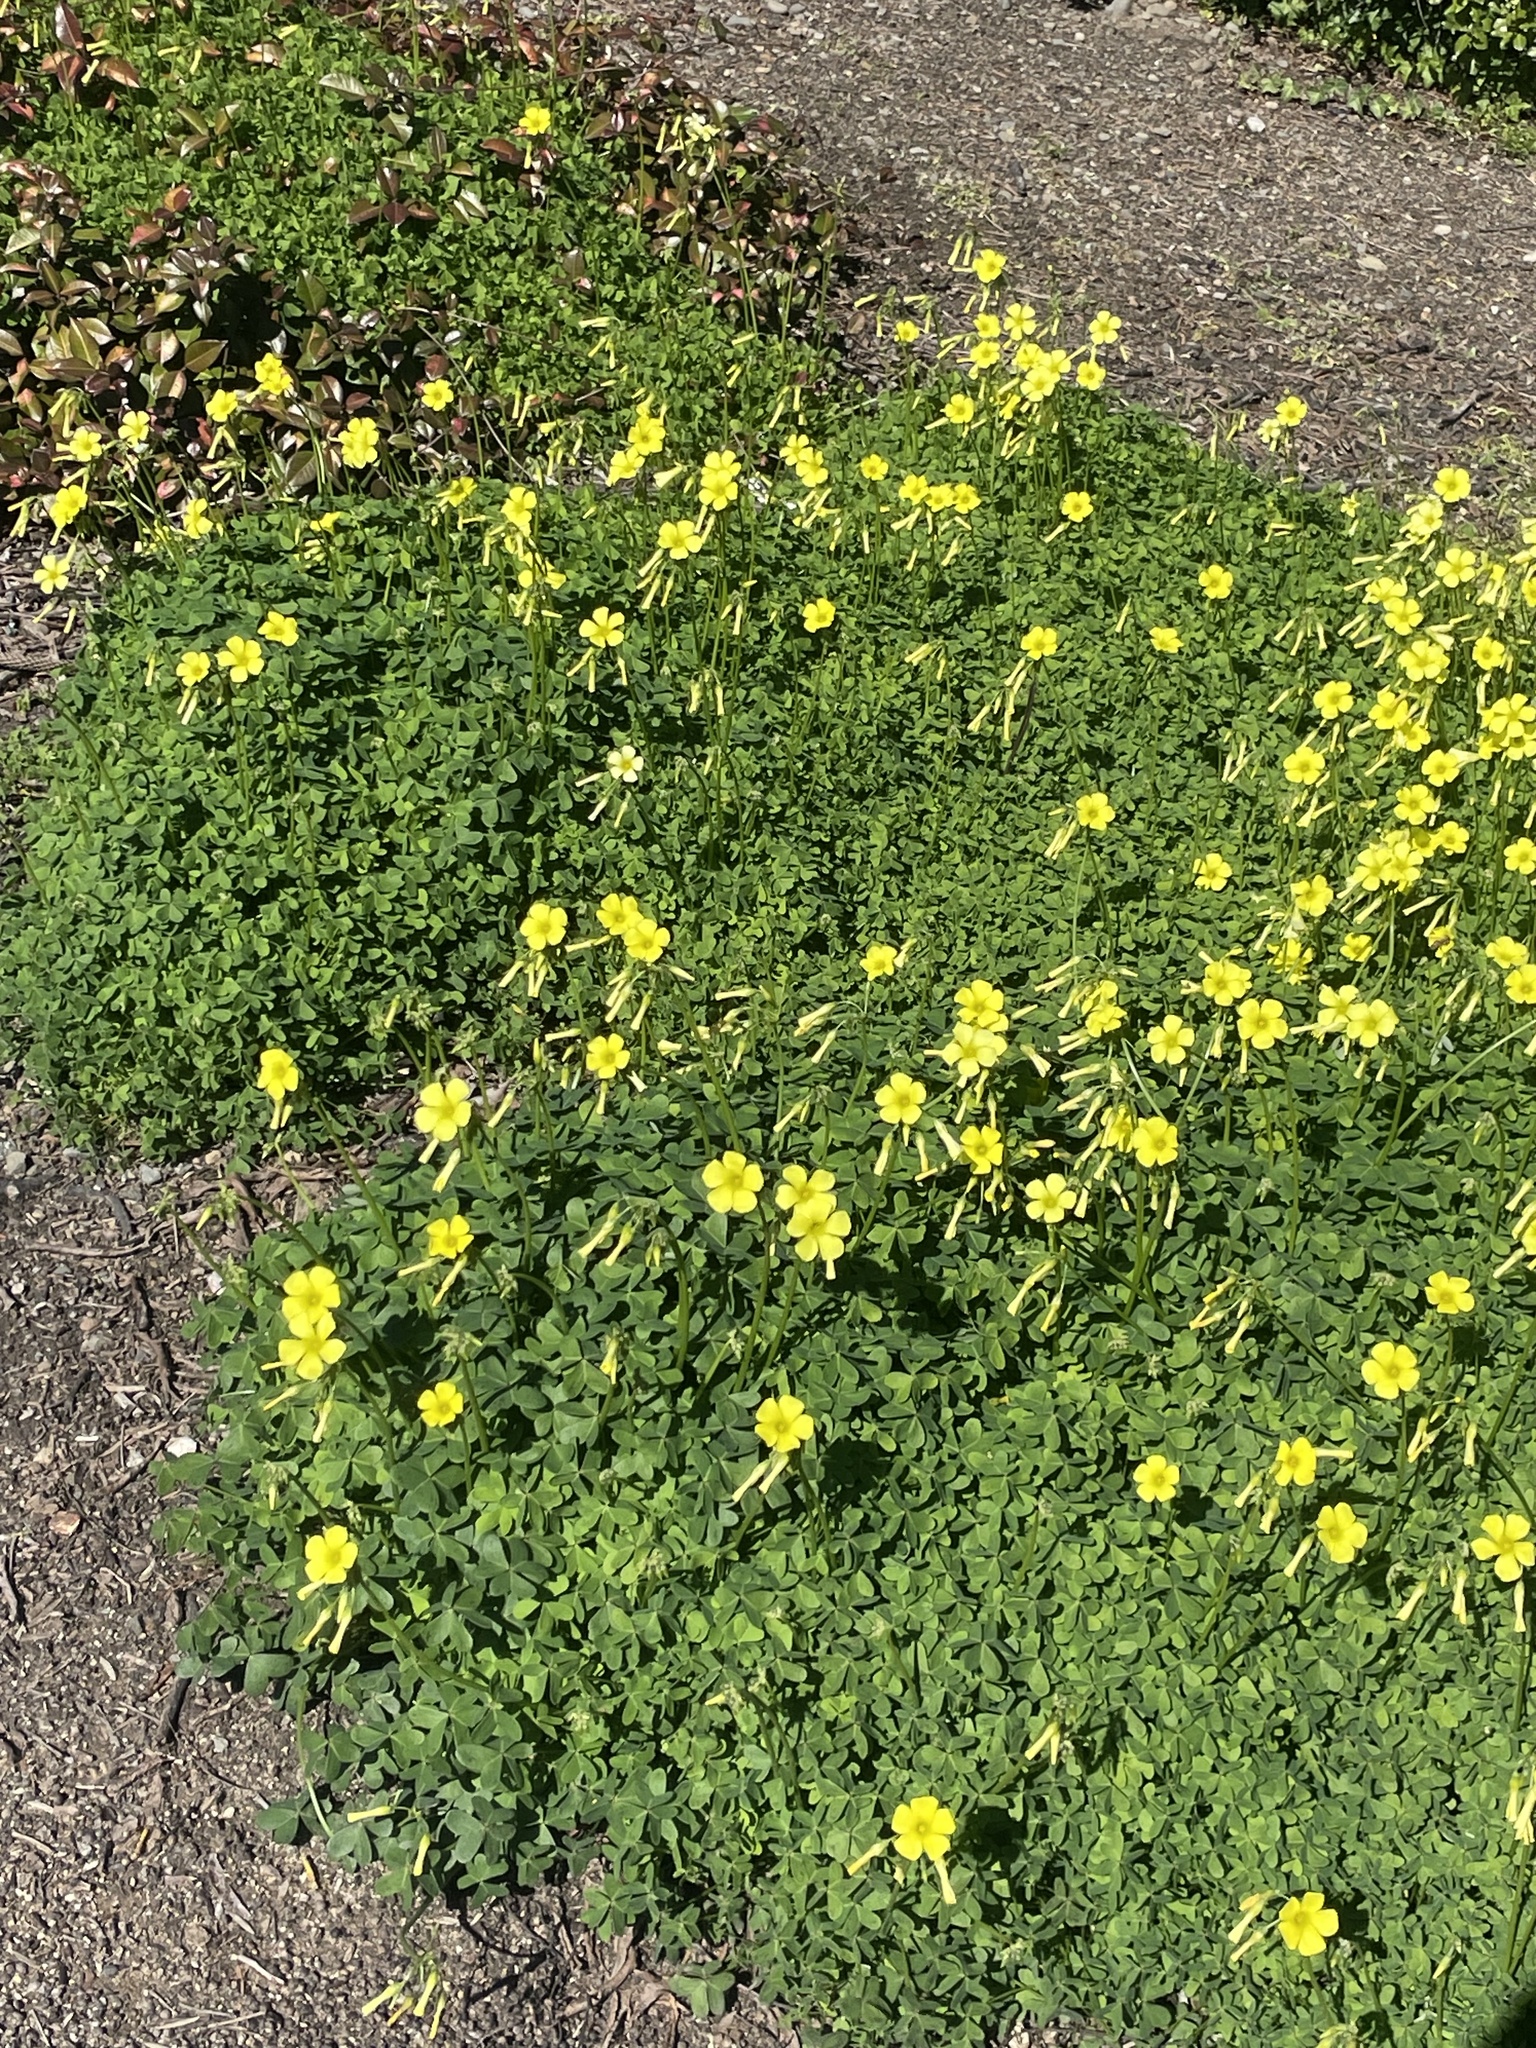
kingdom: Plantae
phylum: Tracheophyta
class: Magnoliopsida
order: Oxalidales
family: Oxalidaceae
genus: Oxalis
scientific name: Oxalis pes-caprae
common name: Bermuda-buttercup
